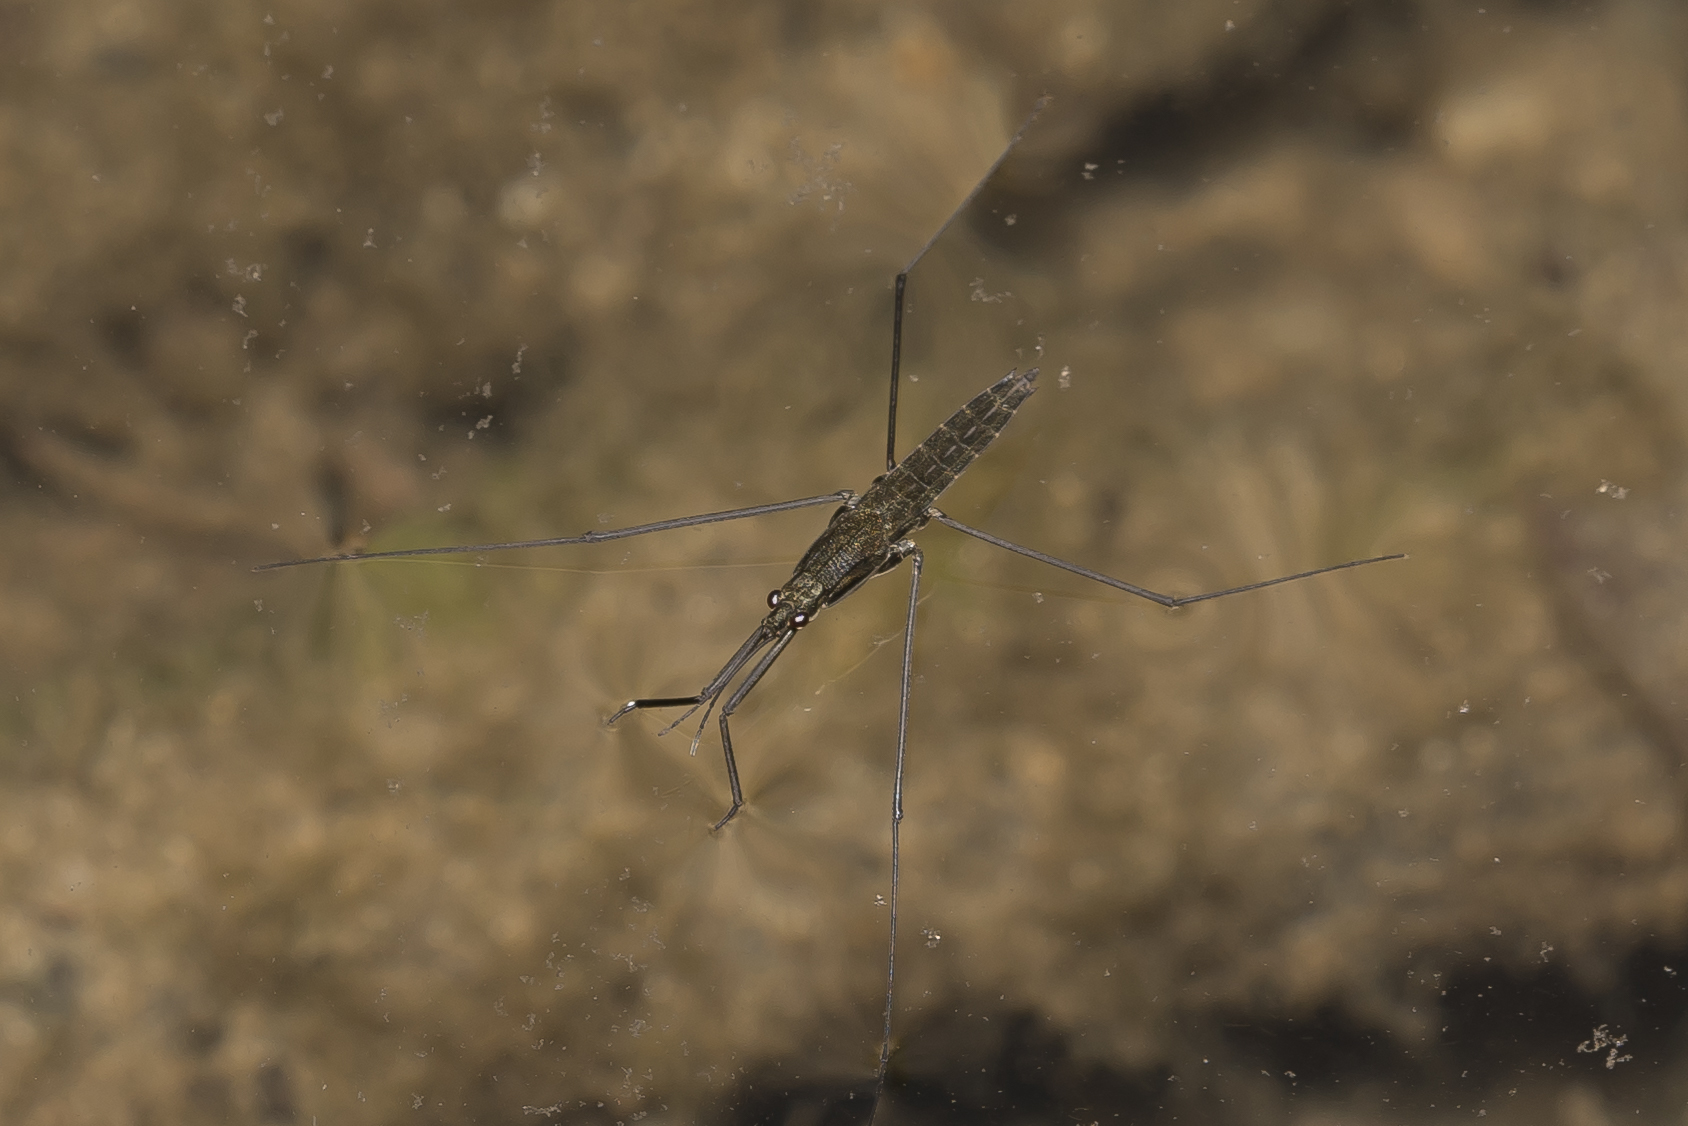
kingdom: Animalia
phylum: Arthropoda
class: Insecta
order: Hemiptera
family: Gerridae
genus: Aquarius
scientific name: Aquarius najas
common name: River skater
